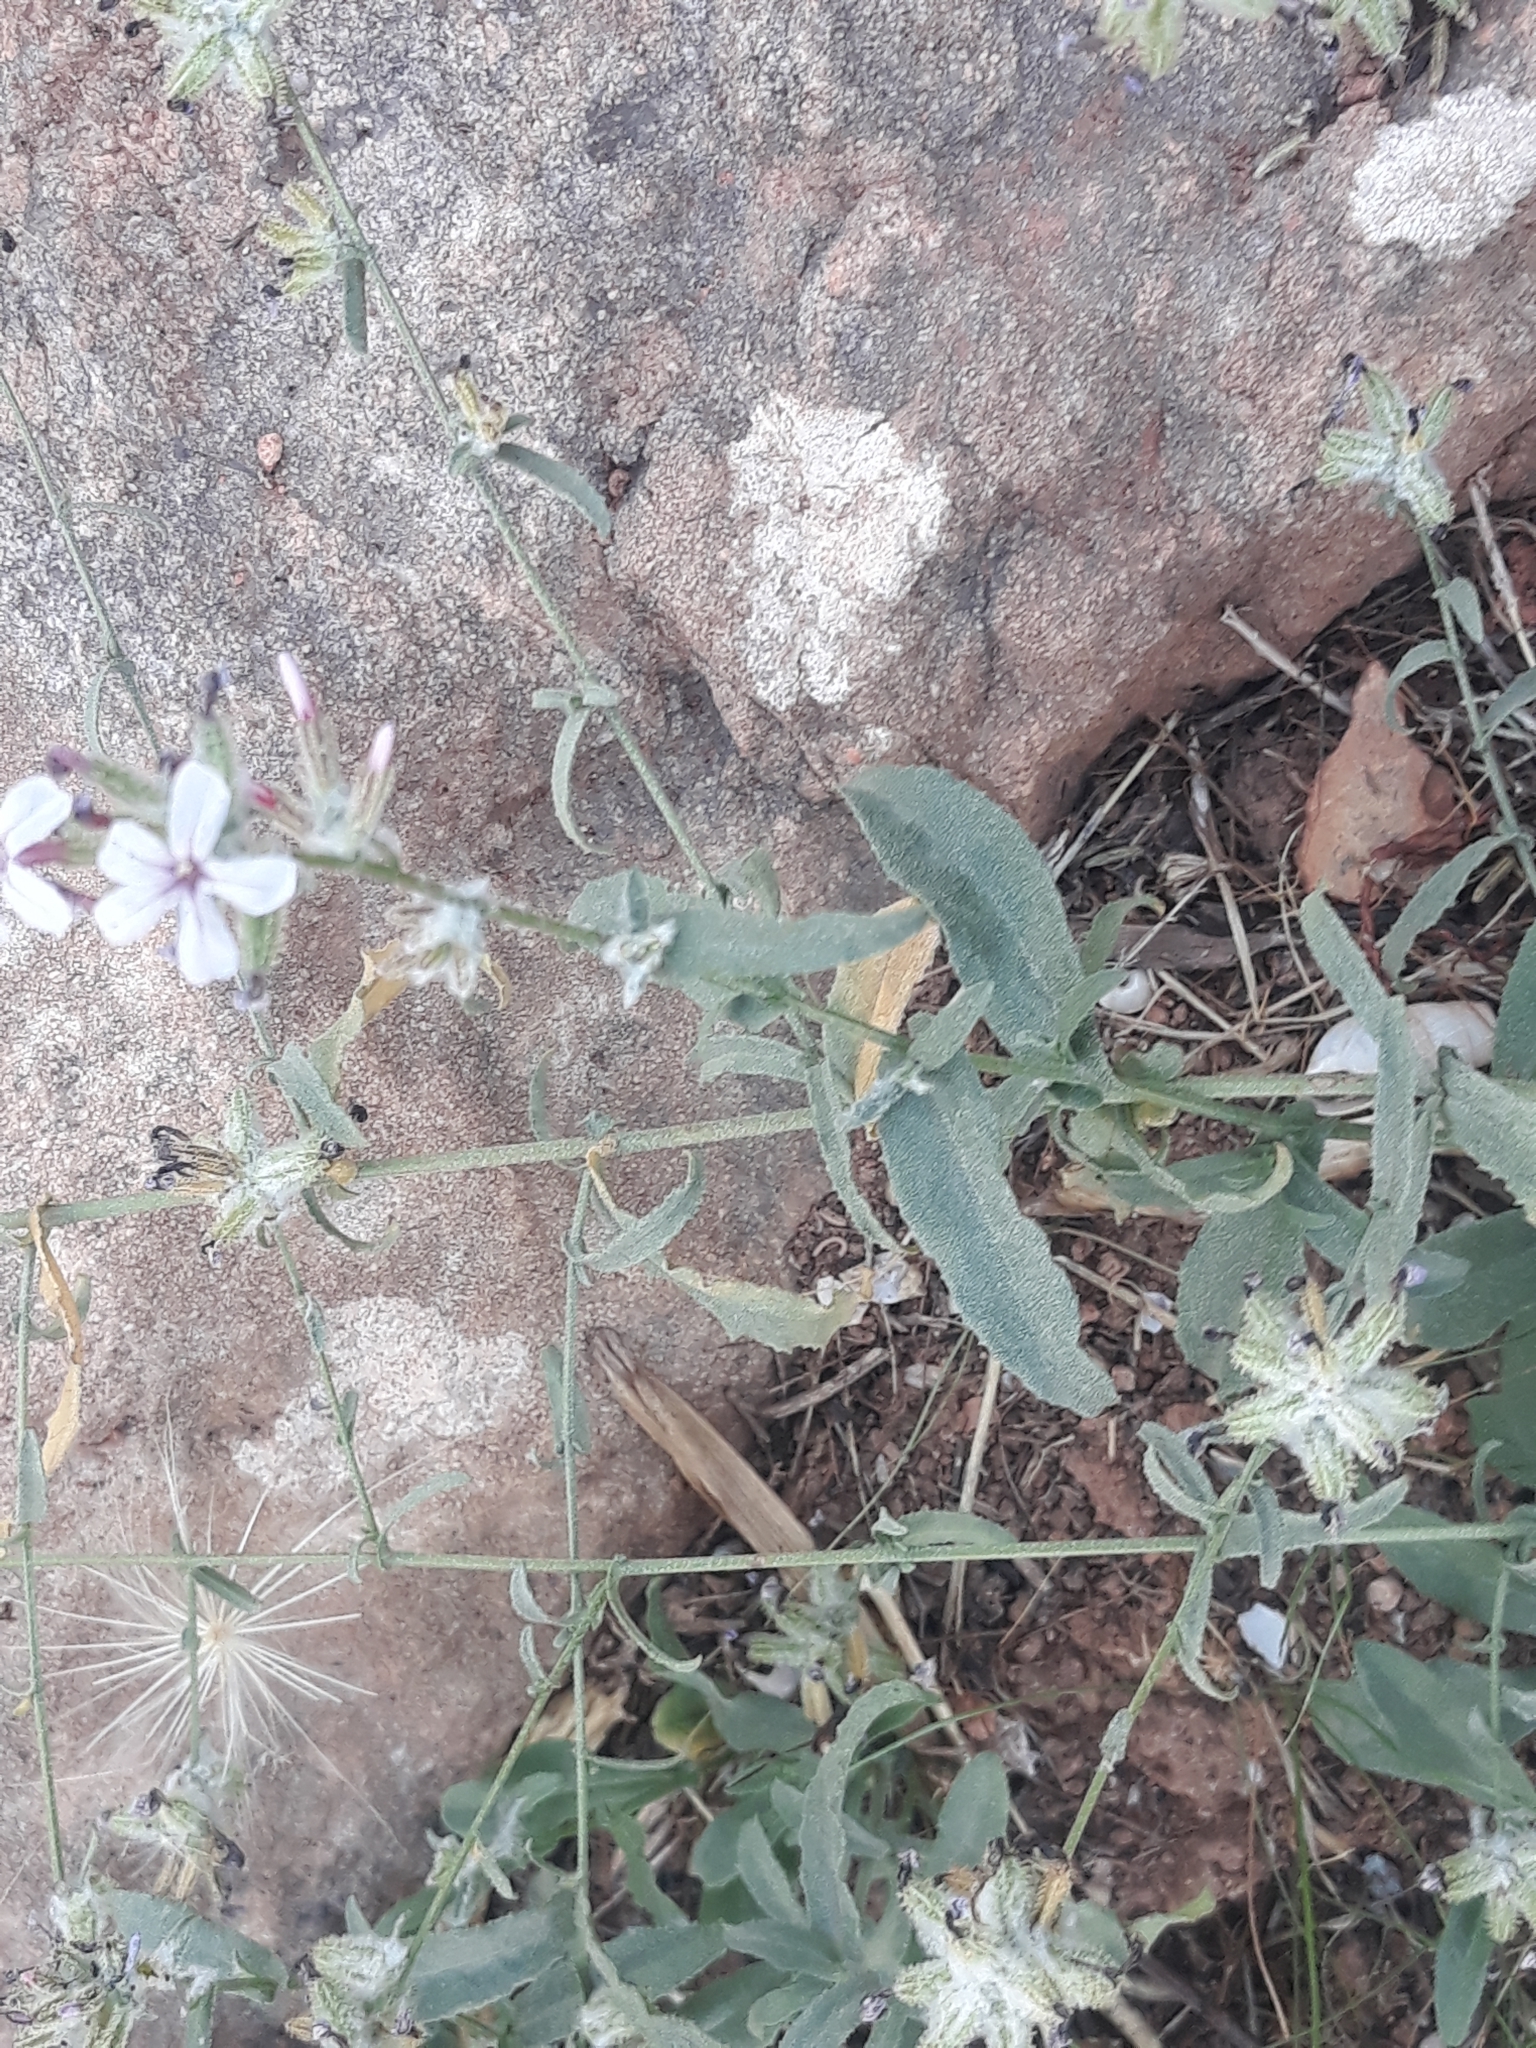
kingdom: Plantae
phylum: Tracheophyta
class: Magnoliopsida
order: Caryophyllales
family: Plumbaginaceae
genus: Plumbago
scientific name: Plumbago europaea
